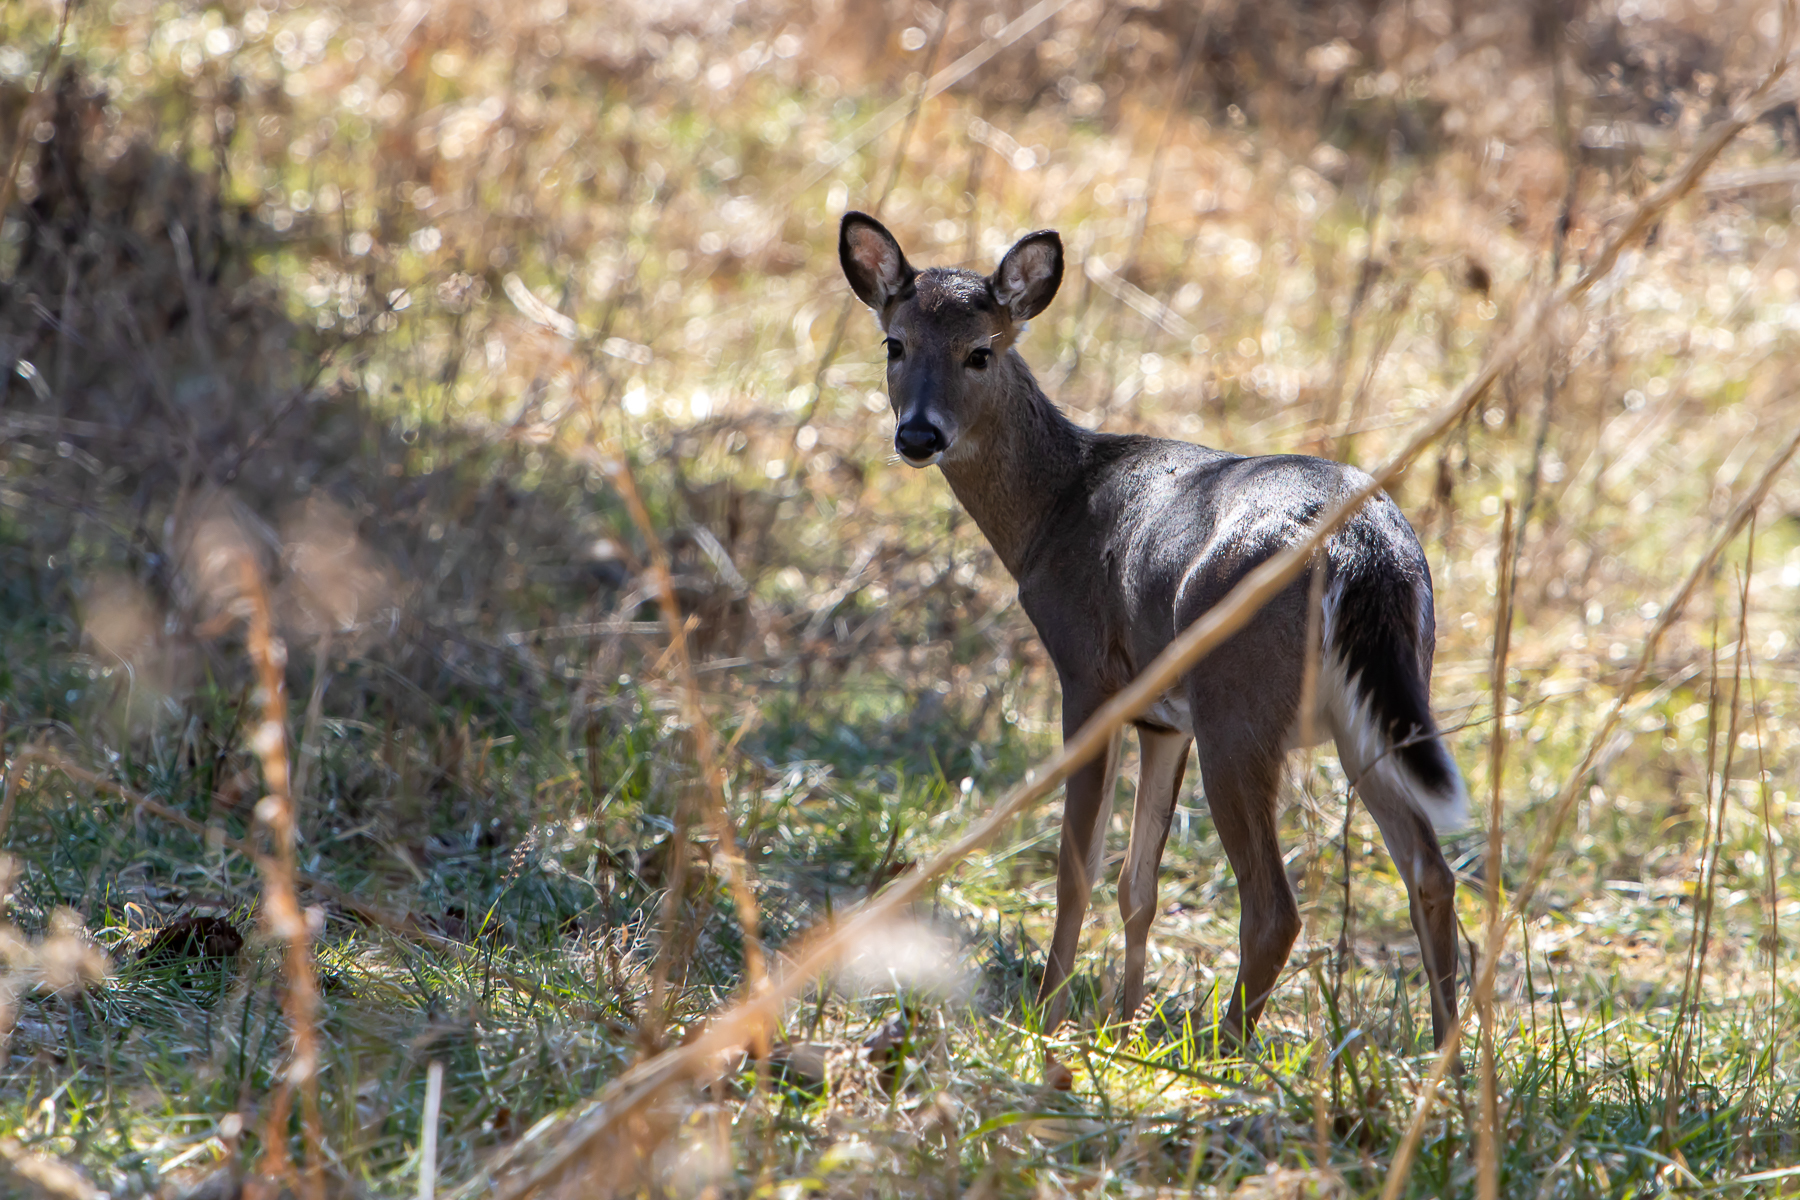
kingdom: Animalia
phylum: Chordata
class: Mammalia
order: Artiodactyla
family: Cervidae
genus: Odocoileus
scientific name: Odocoileus virginianus
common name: White-tailed deer
